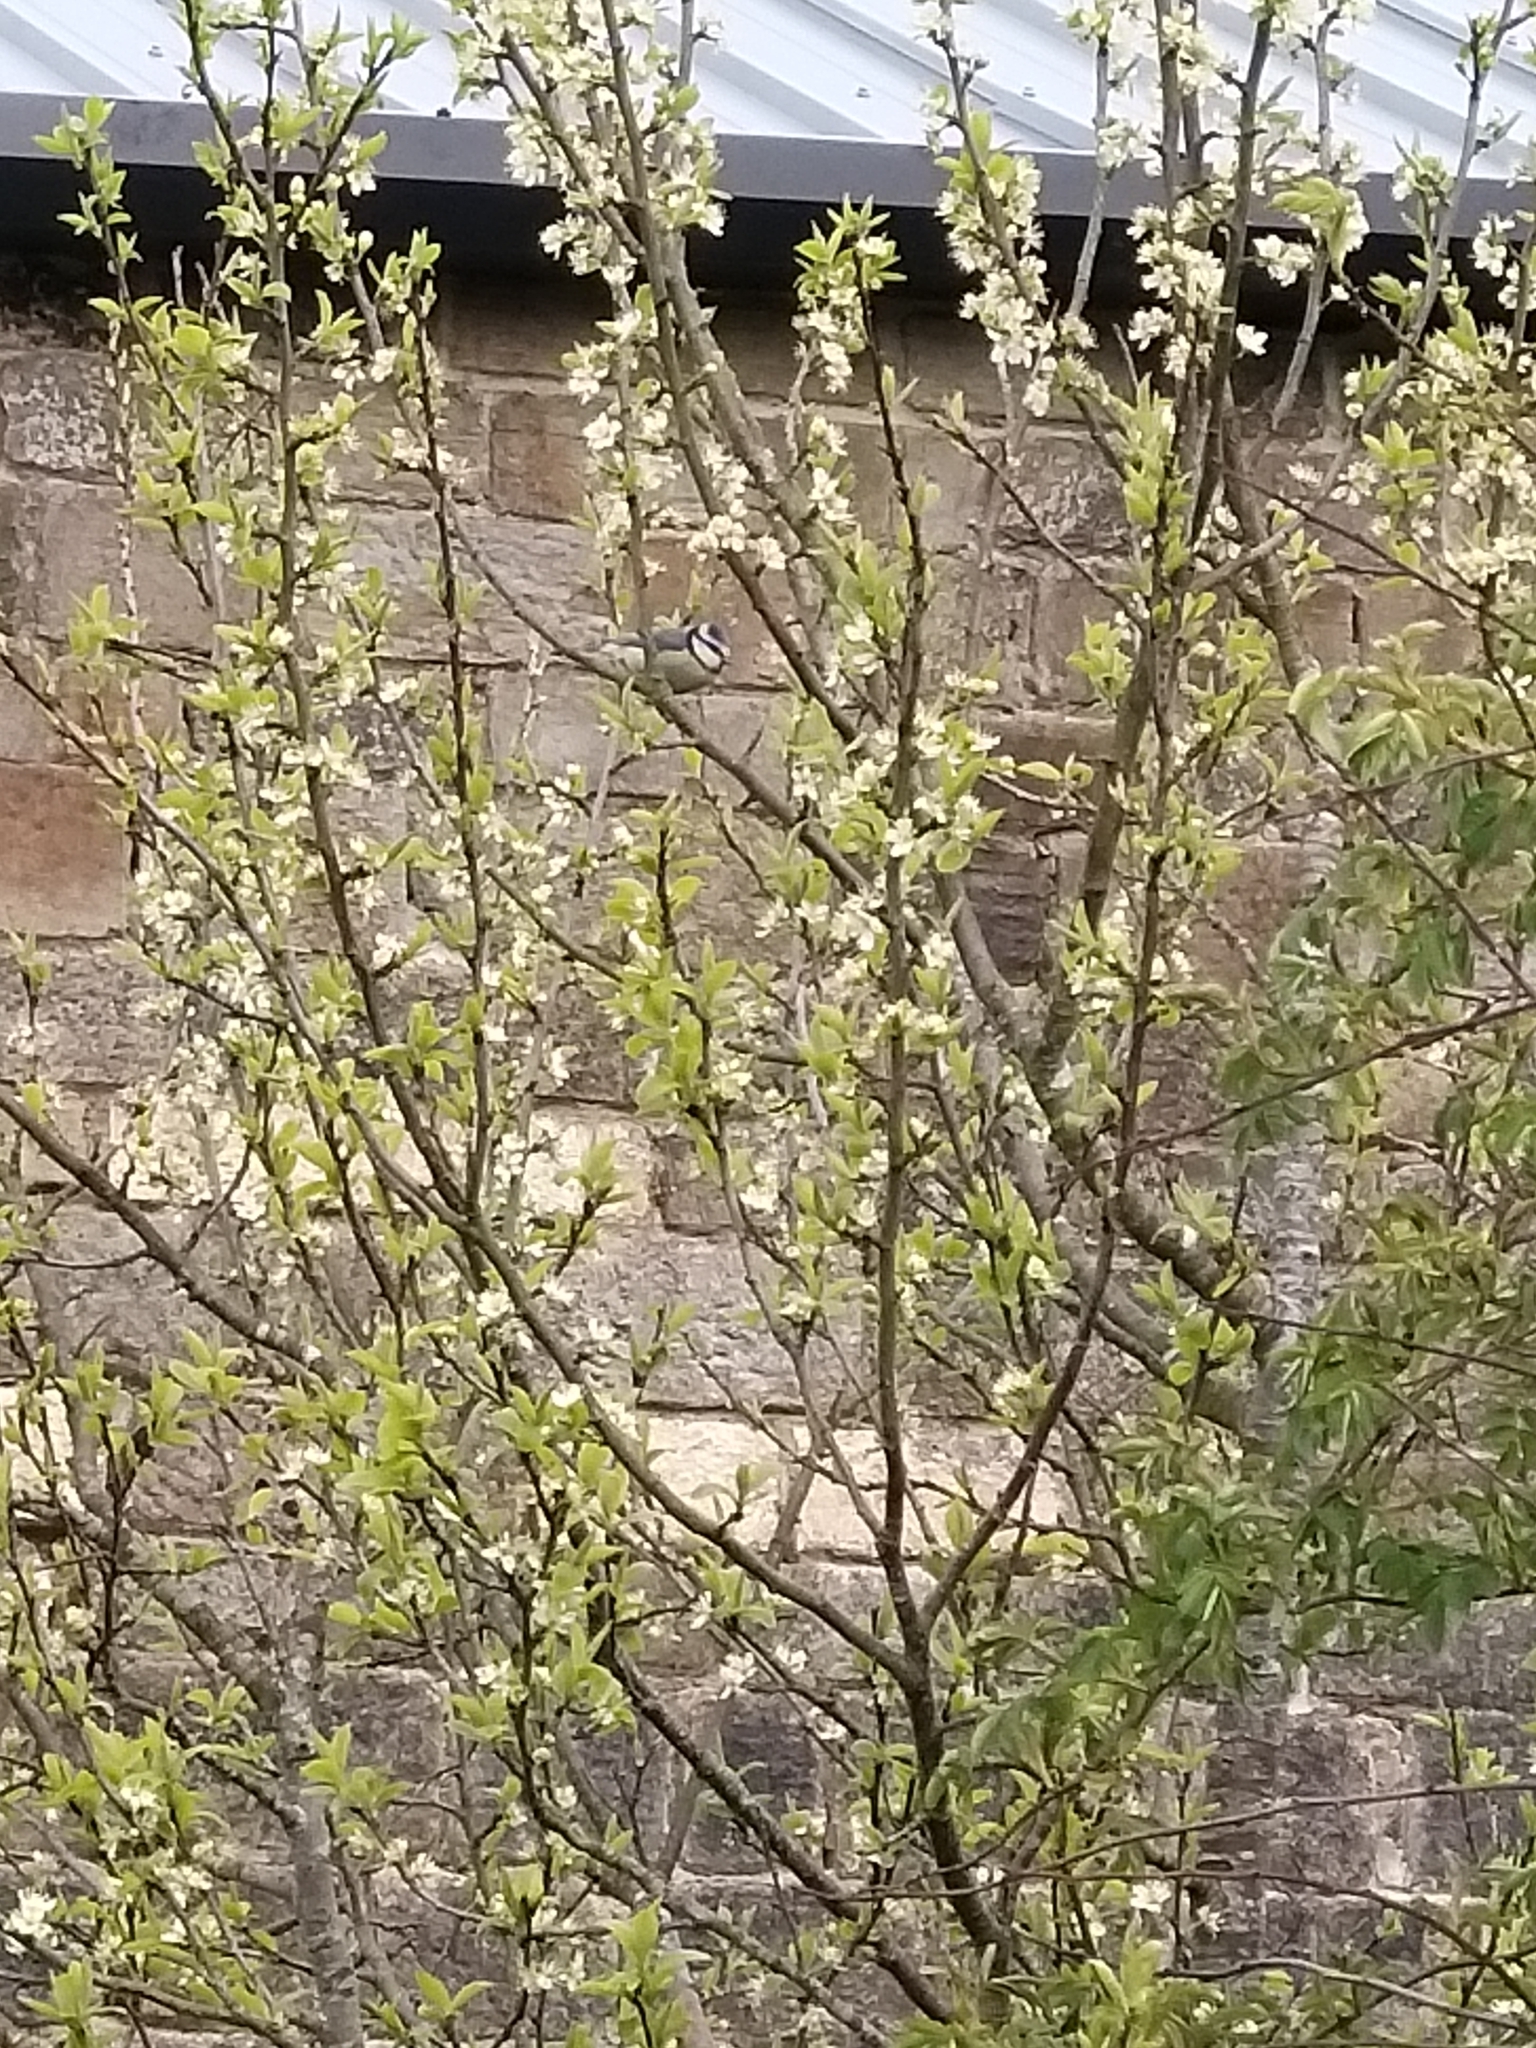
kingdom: Animalia
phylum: Chordata
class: Aves
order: Passeriformes
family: Paridae
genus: Cyanistes
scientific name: Cyanistes caeruleus
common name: Eurasian blue tit
